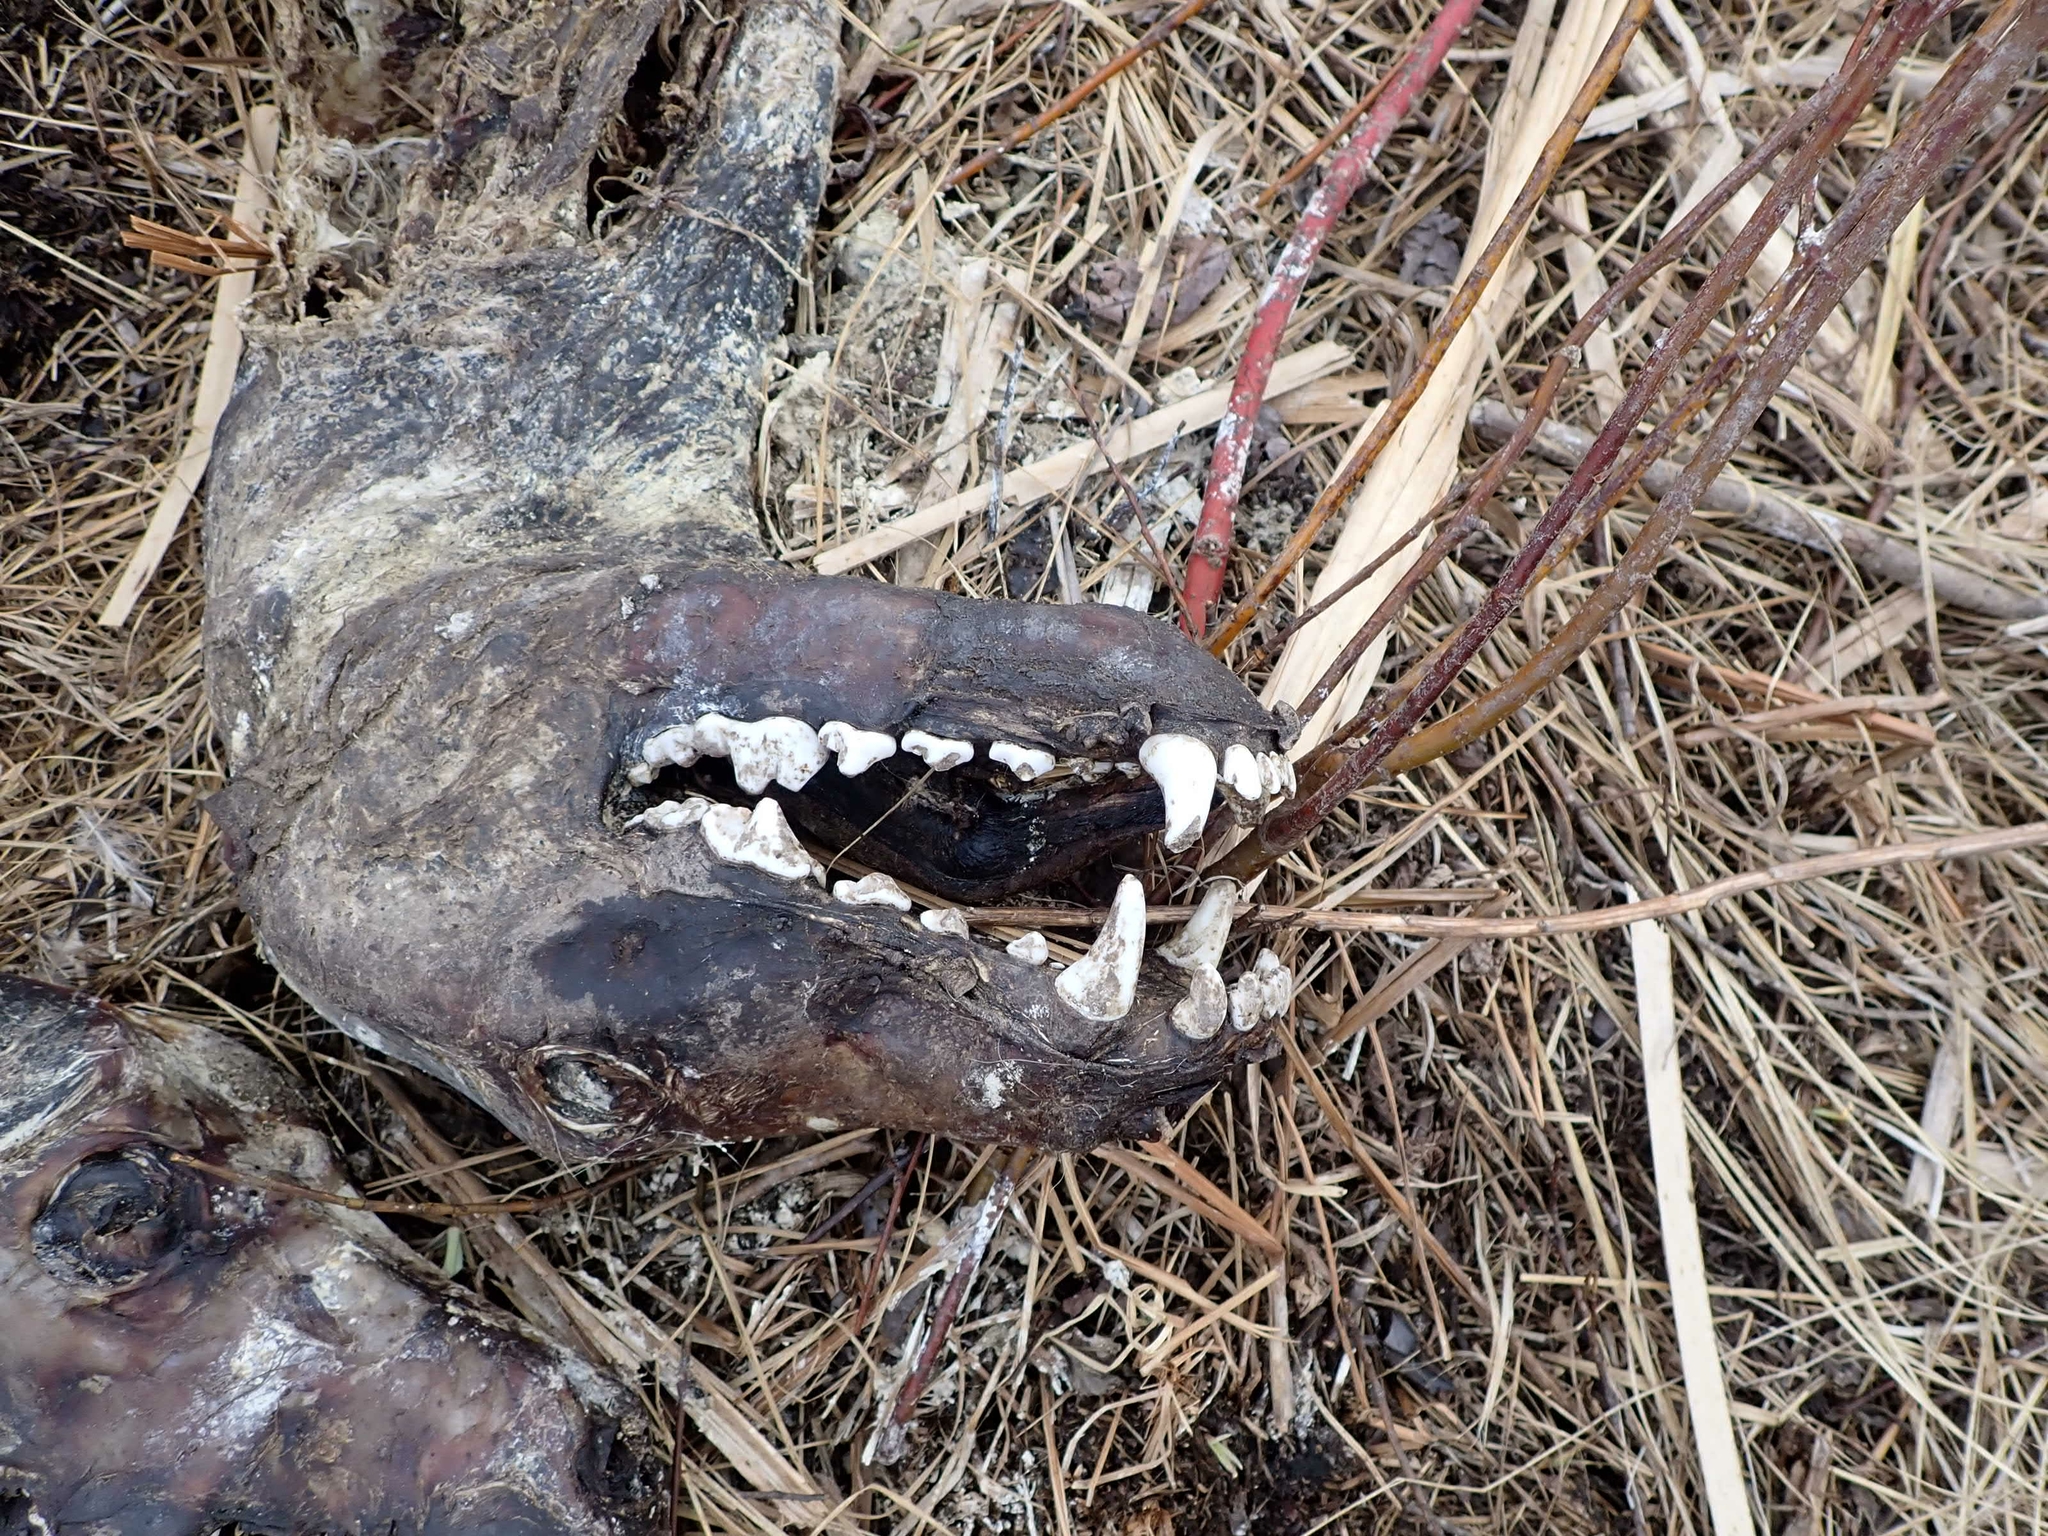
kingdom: Animalia
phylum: Chordata
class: Mammalia
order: Carnivora
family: Canidae
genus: Canis
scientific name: Canis latrans
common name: Coyote
